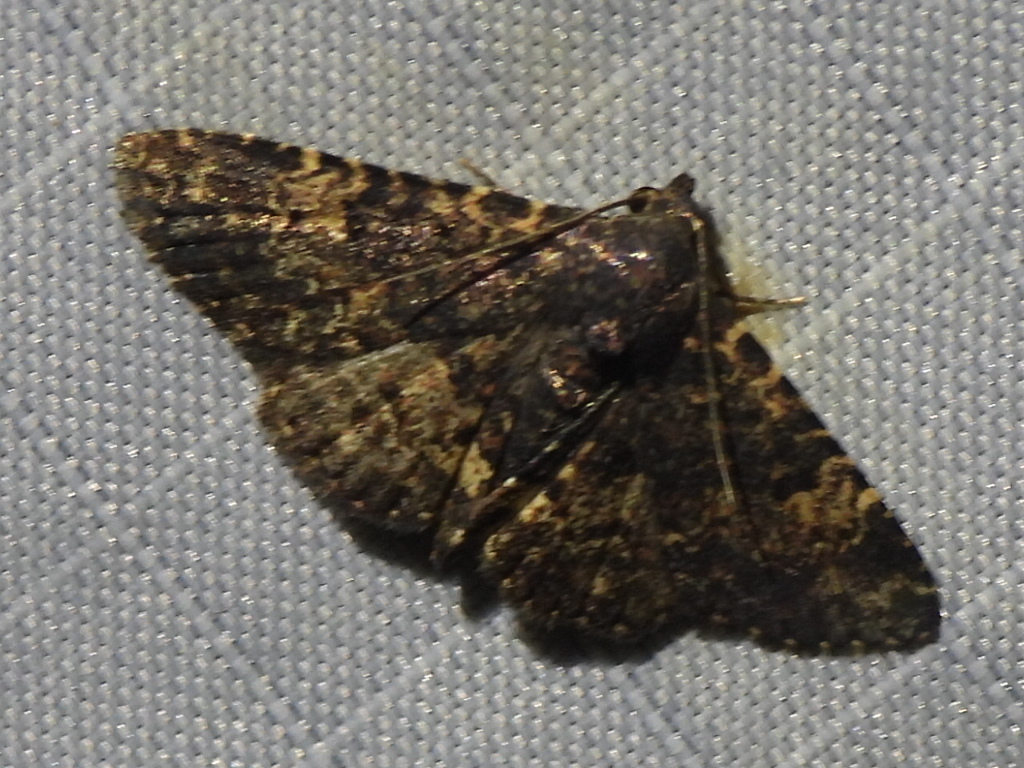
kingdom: Animalia
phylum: Arthropoda
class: Insecta
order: Lepidoptera
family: Erebidae
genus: Metalectra
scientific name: Metalectra diabolica
